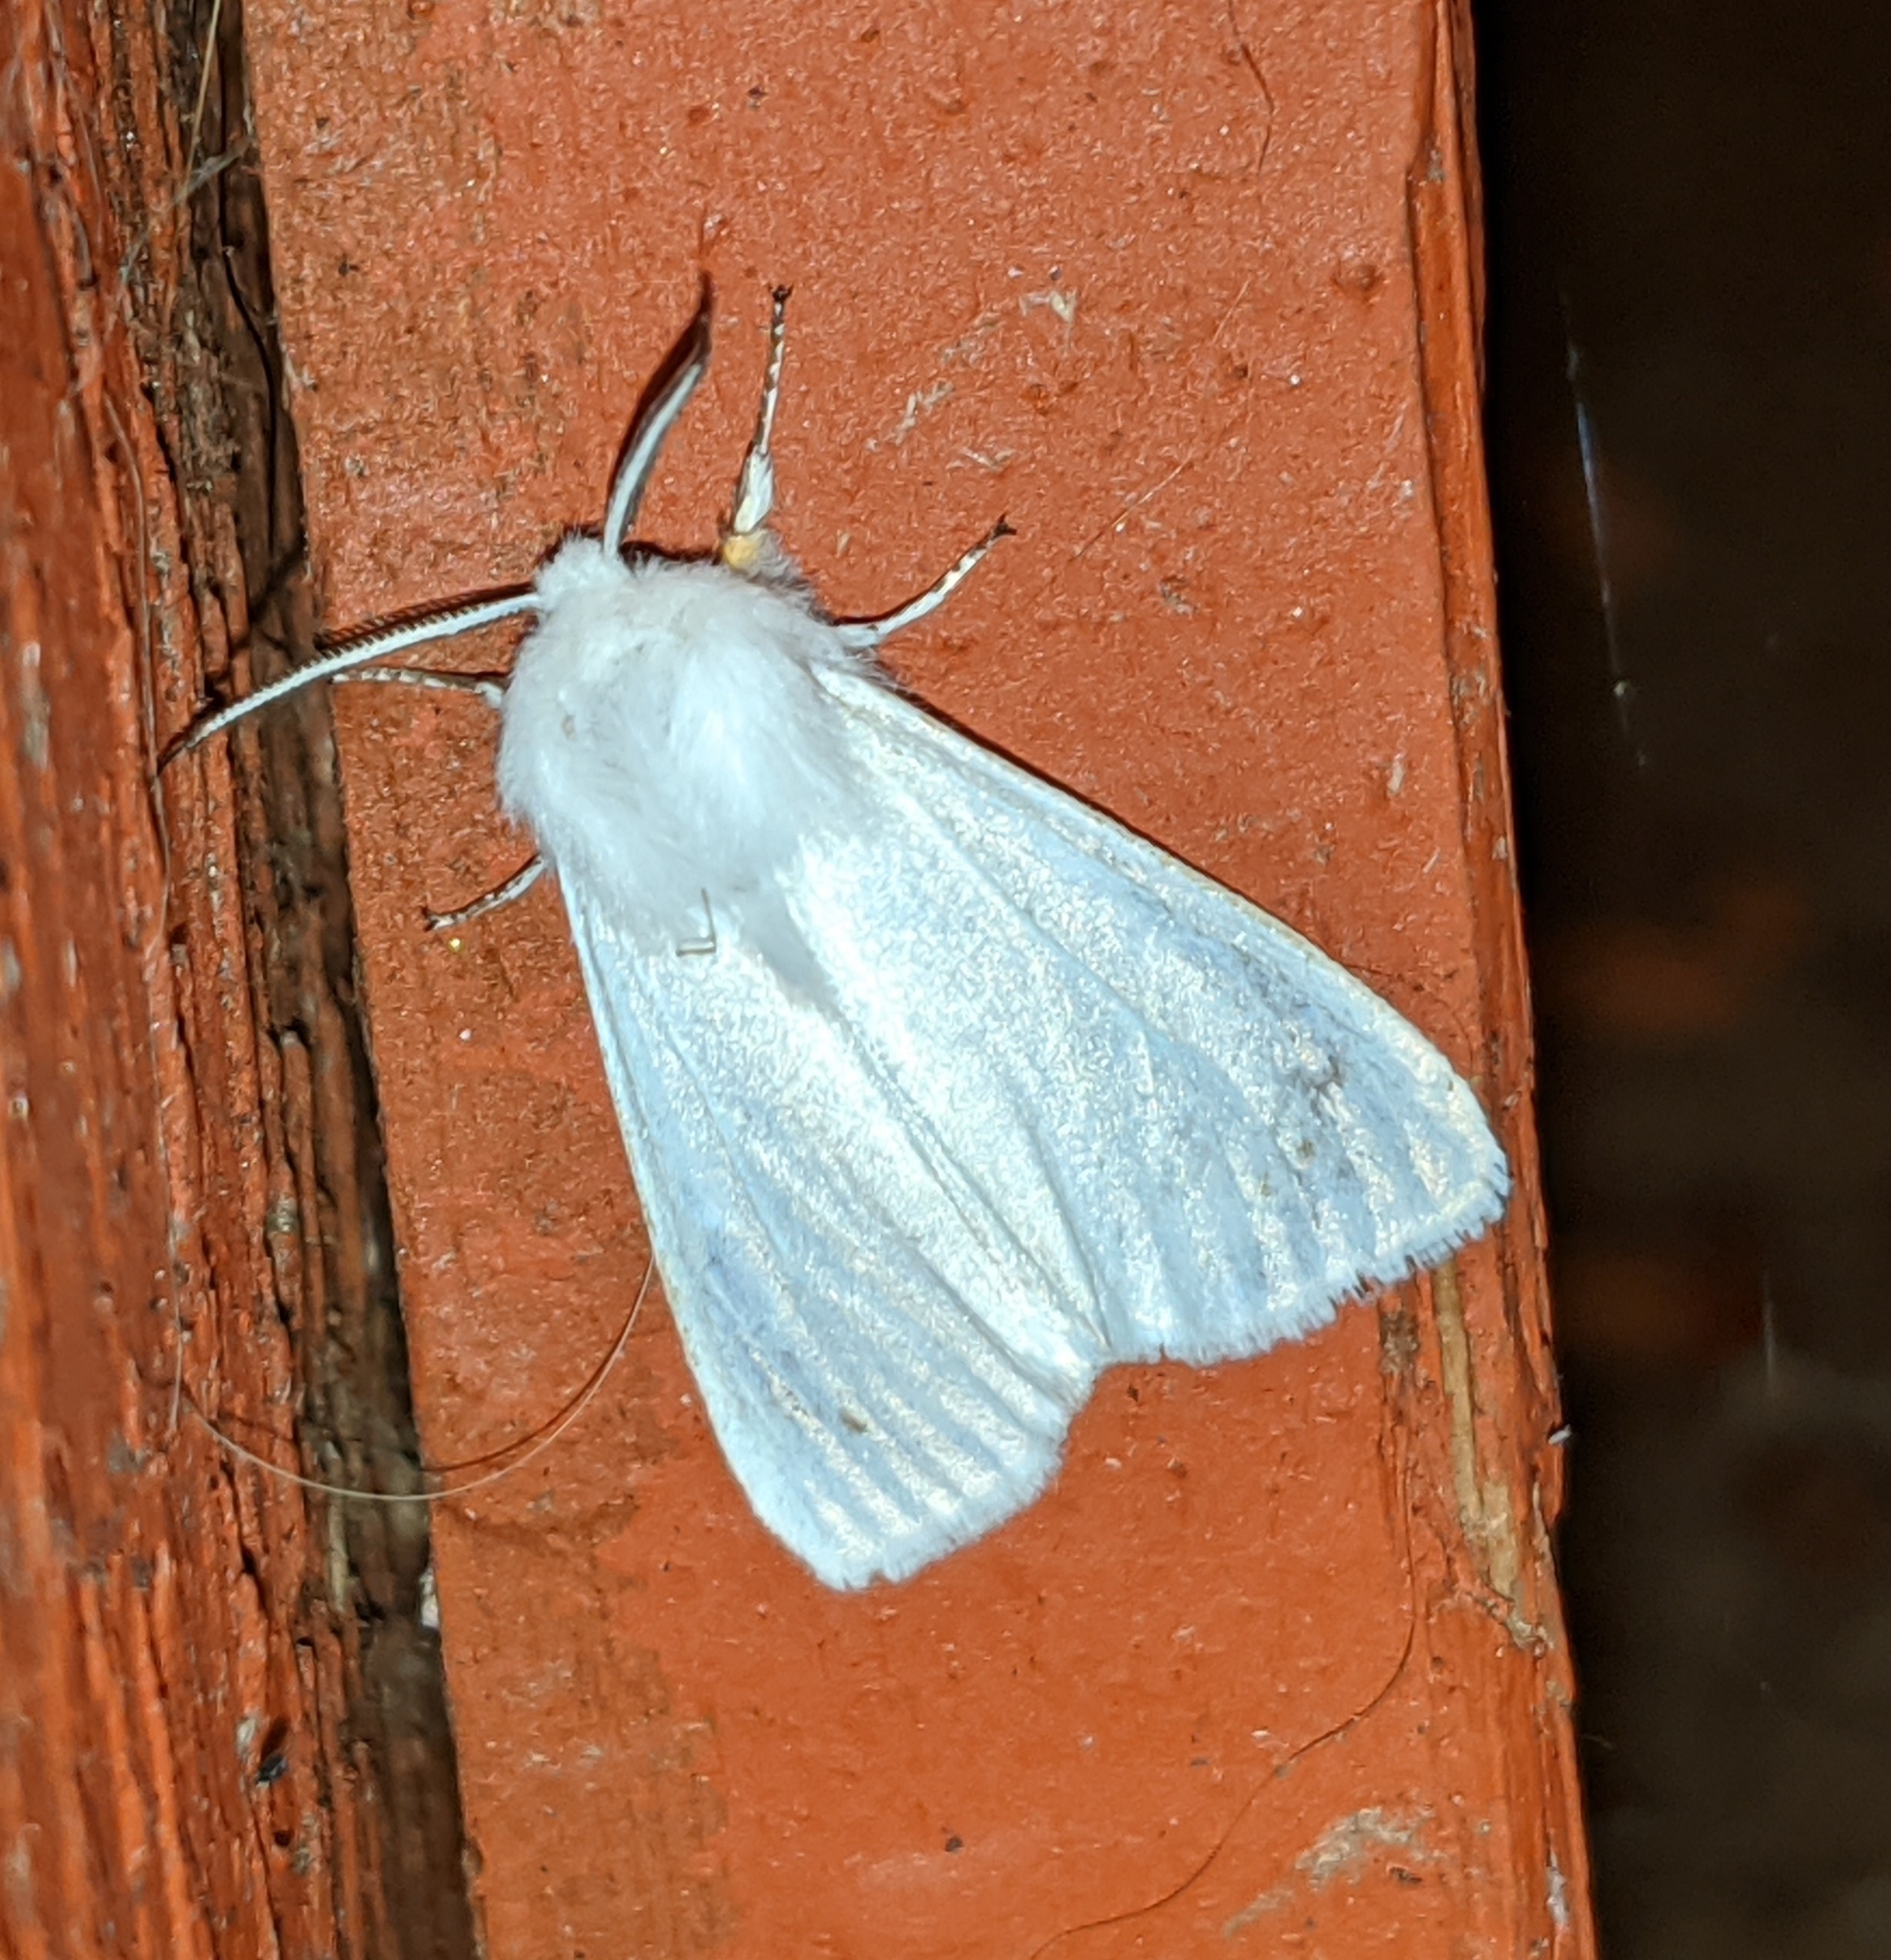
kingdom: Animalia
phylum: Arthropoda
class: Insecta
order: Lepidoptera
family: Erebidae
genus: Hyphantria
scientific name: Hyphantria cunea
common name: American white moth
